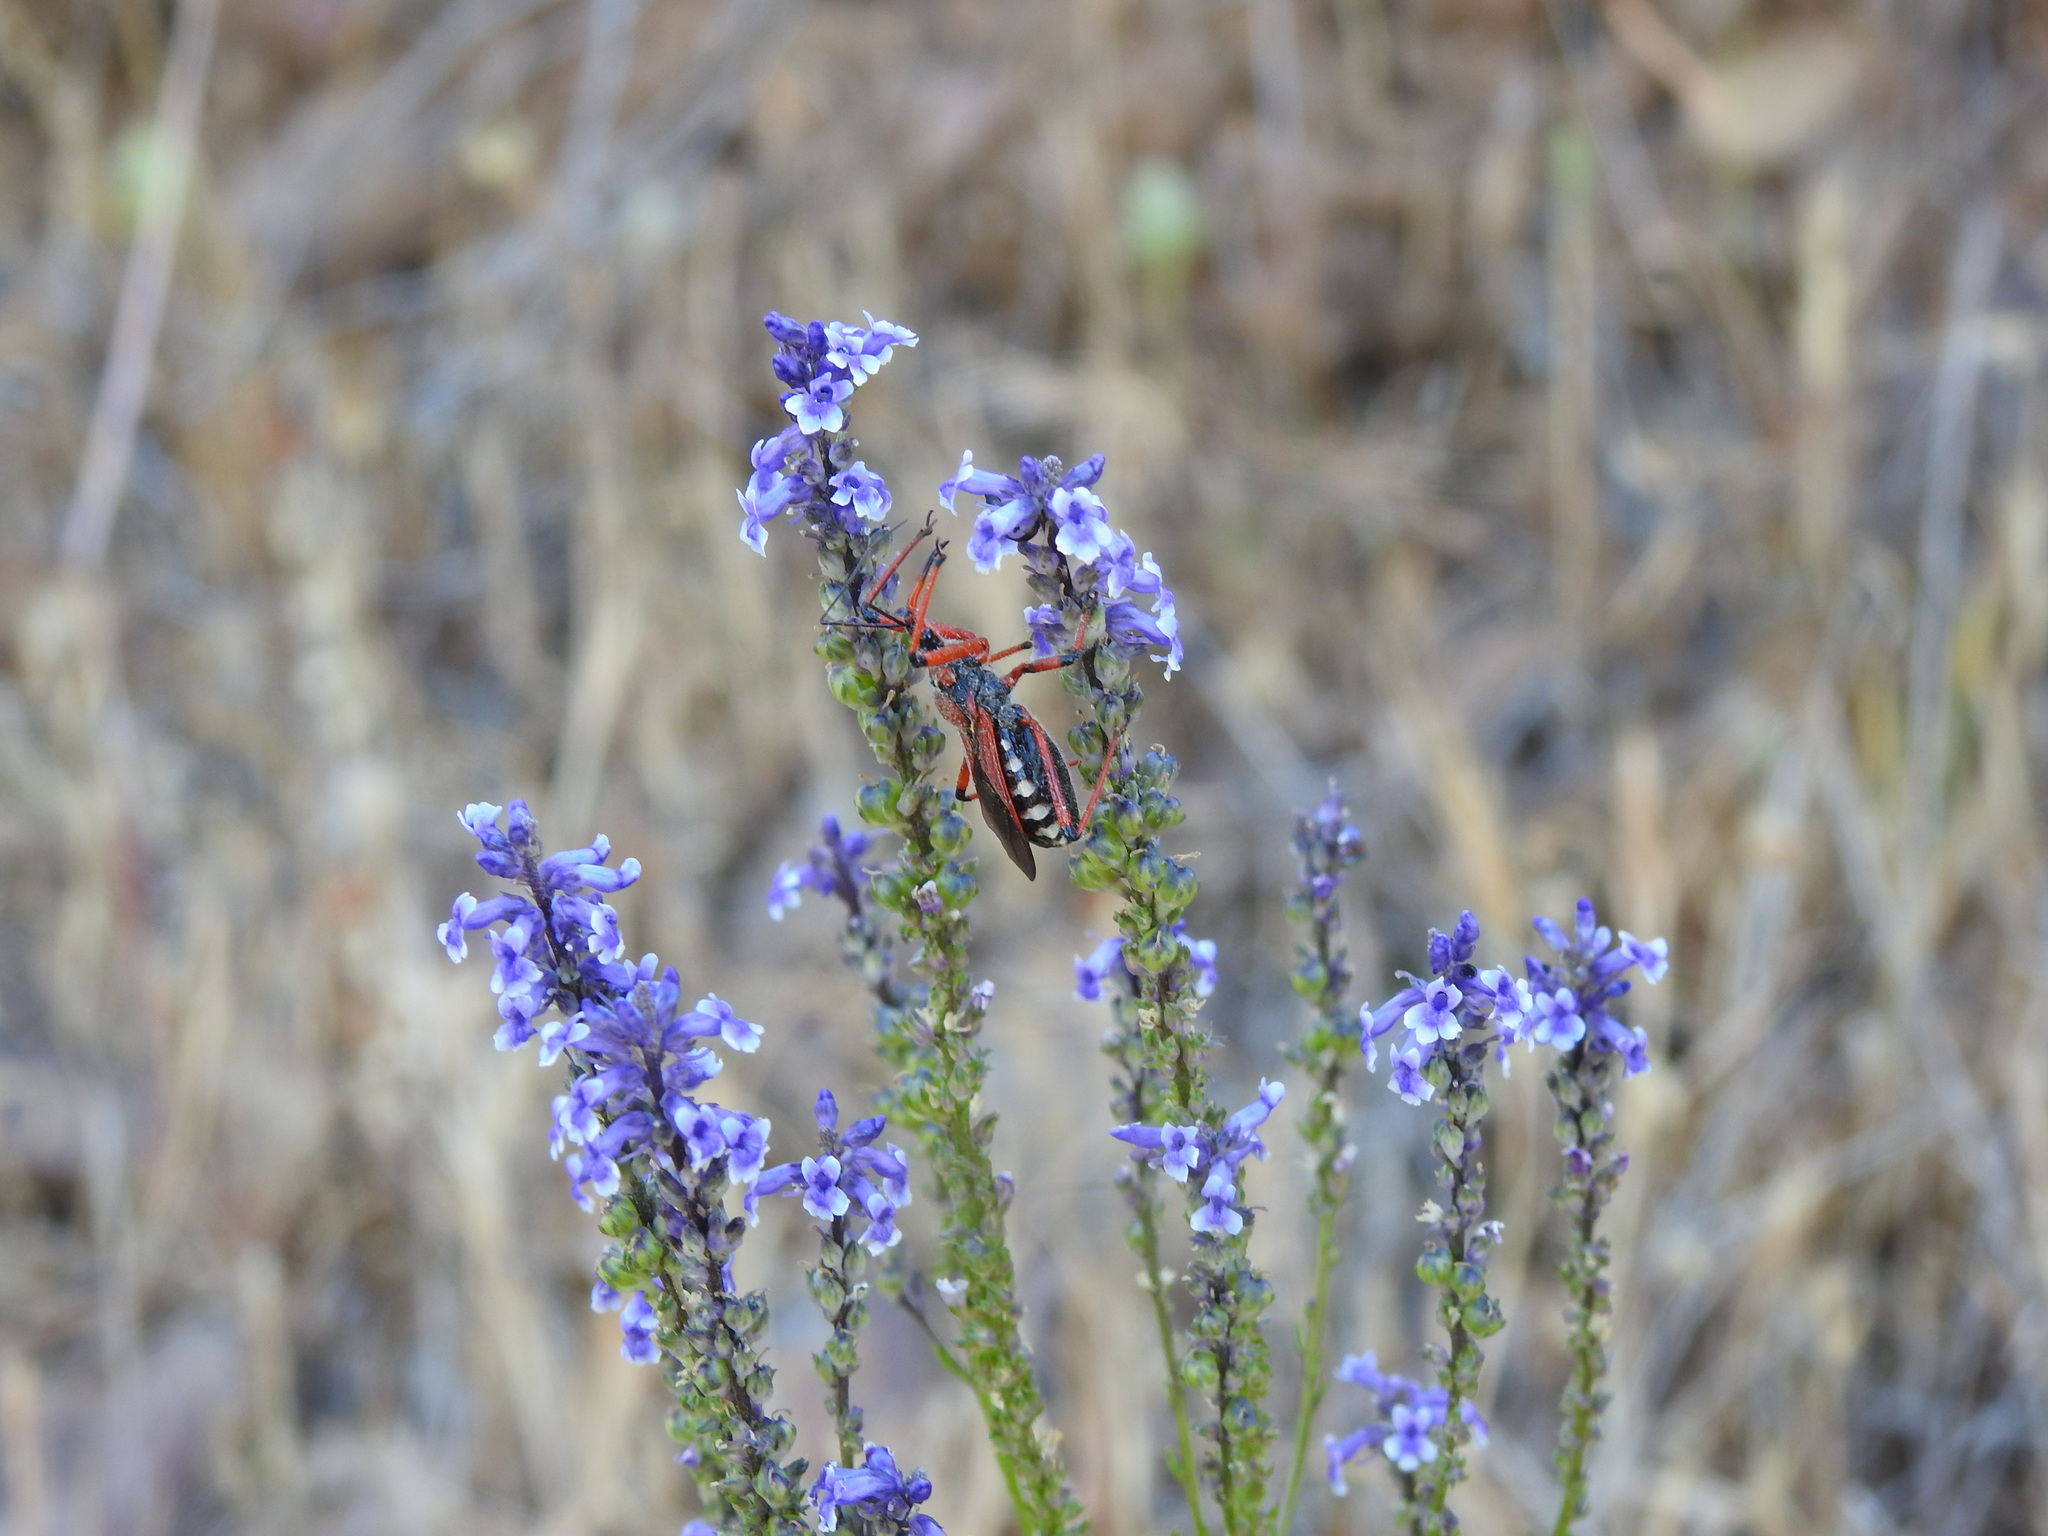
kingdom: Plantae
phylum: Tracheophyta
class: Magnoliopsida
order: Lamiales
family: Plantaginaceae
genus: Anarrhinum
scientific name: Anarrhinum bellidifolium
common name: Daisy-leaved toadflax
